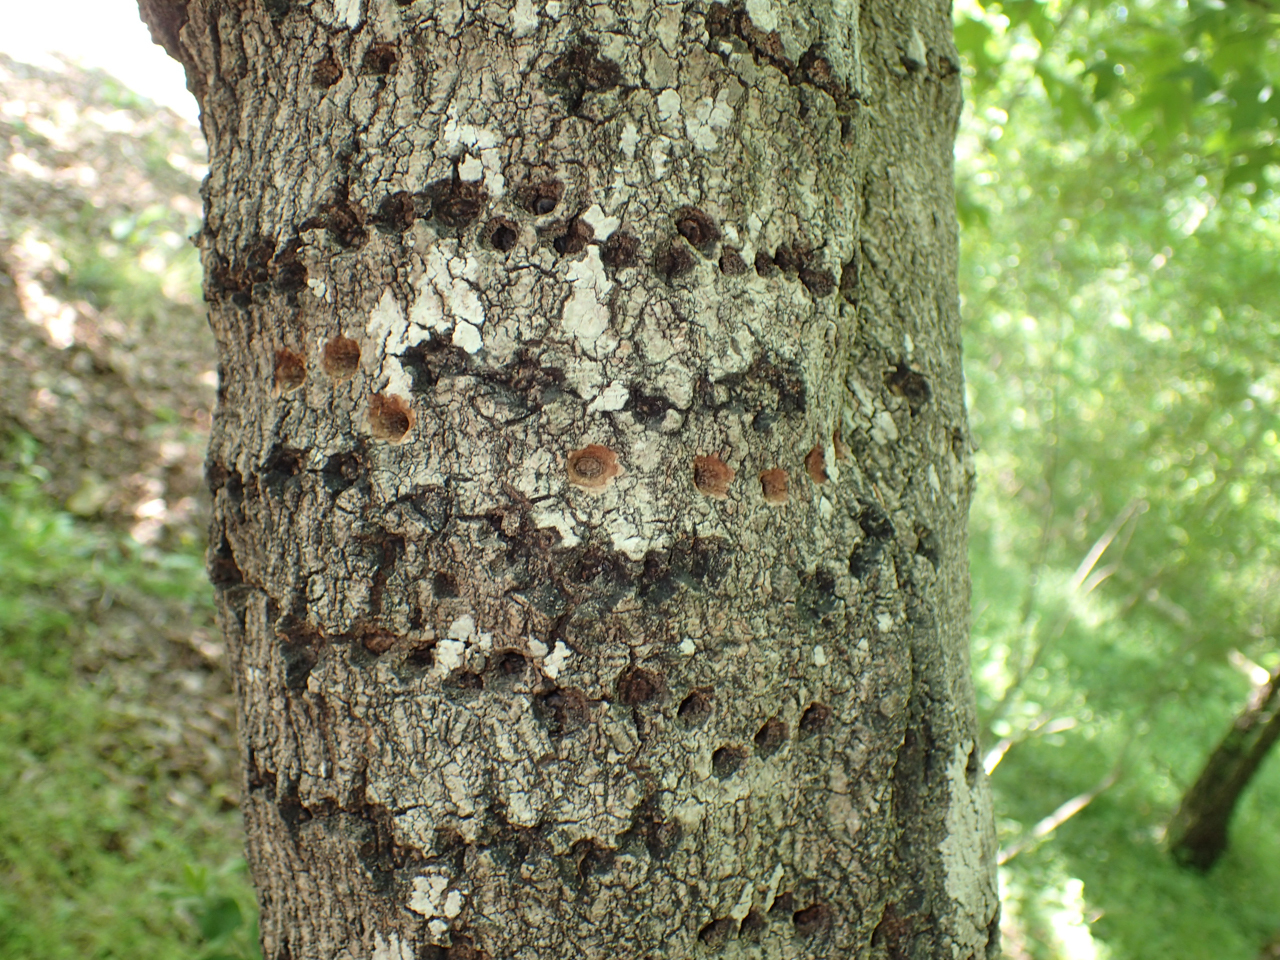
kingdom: Animalia
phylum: Chordata
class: Aves
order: Piciformes
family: Picidae
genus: Sphyrapicus
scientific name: Sphyrapicus varius
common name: Yellow-bellied sapsucker
